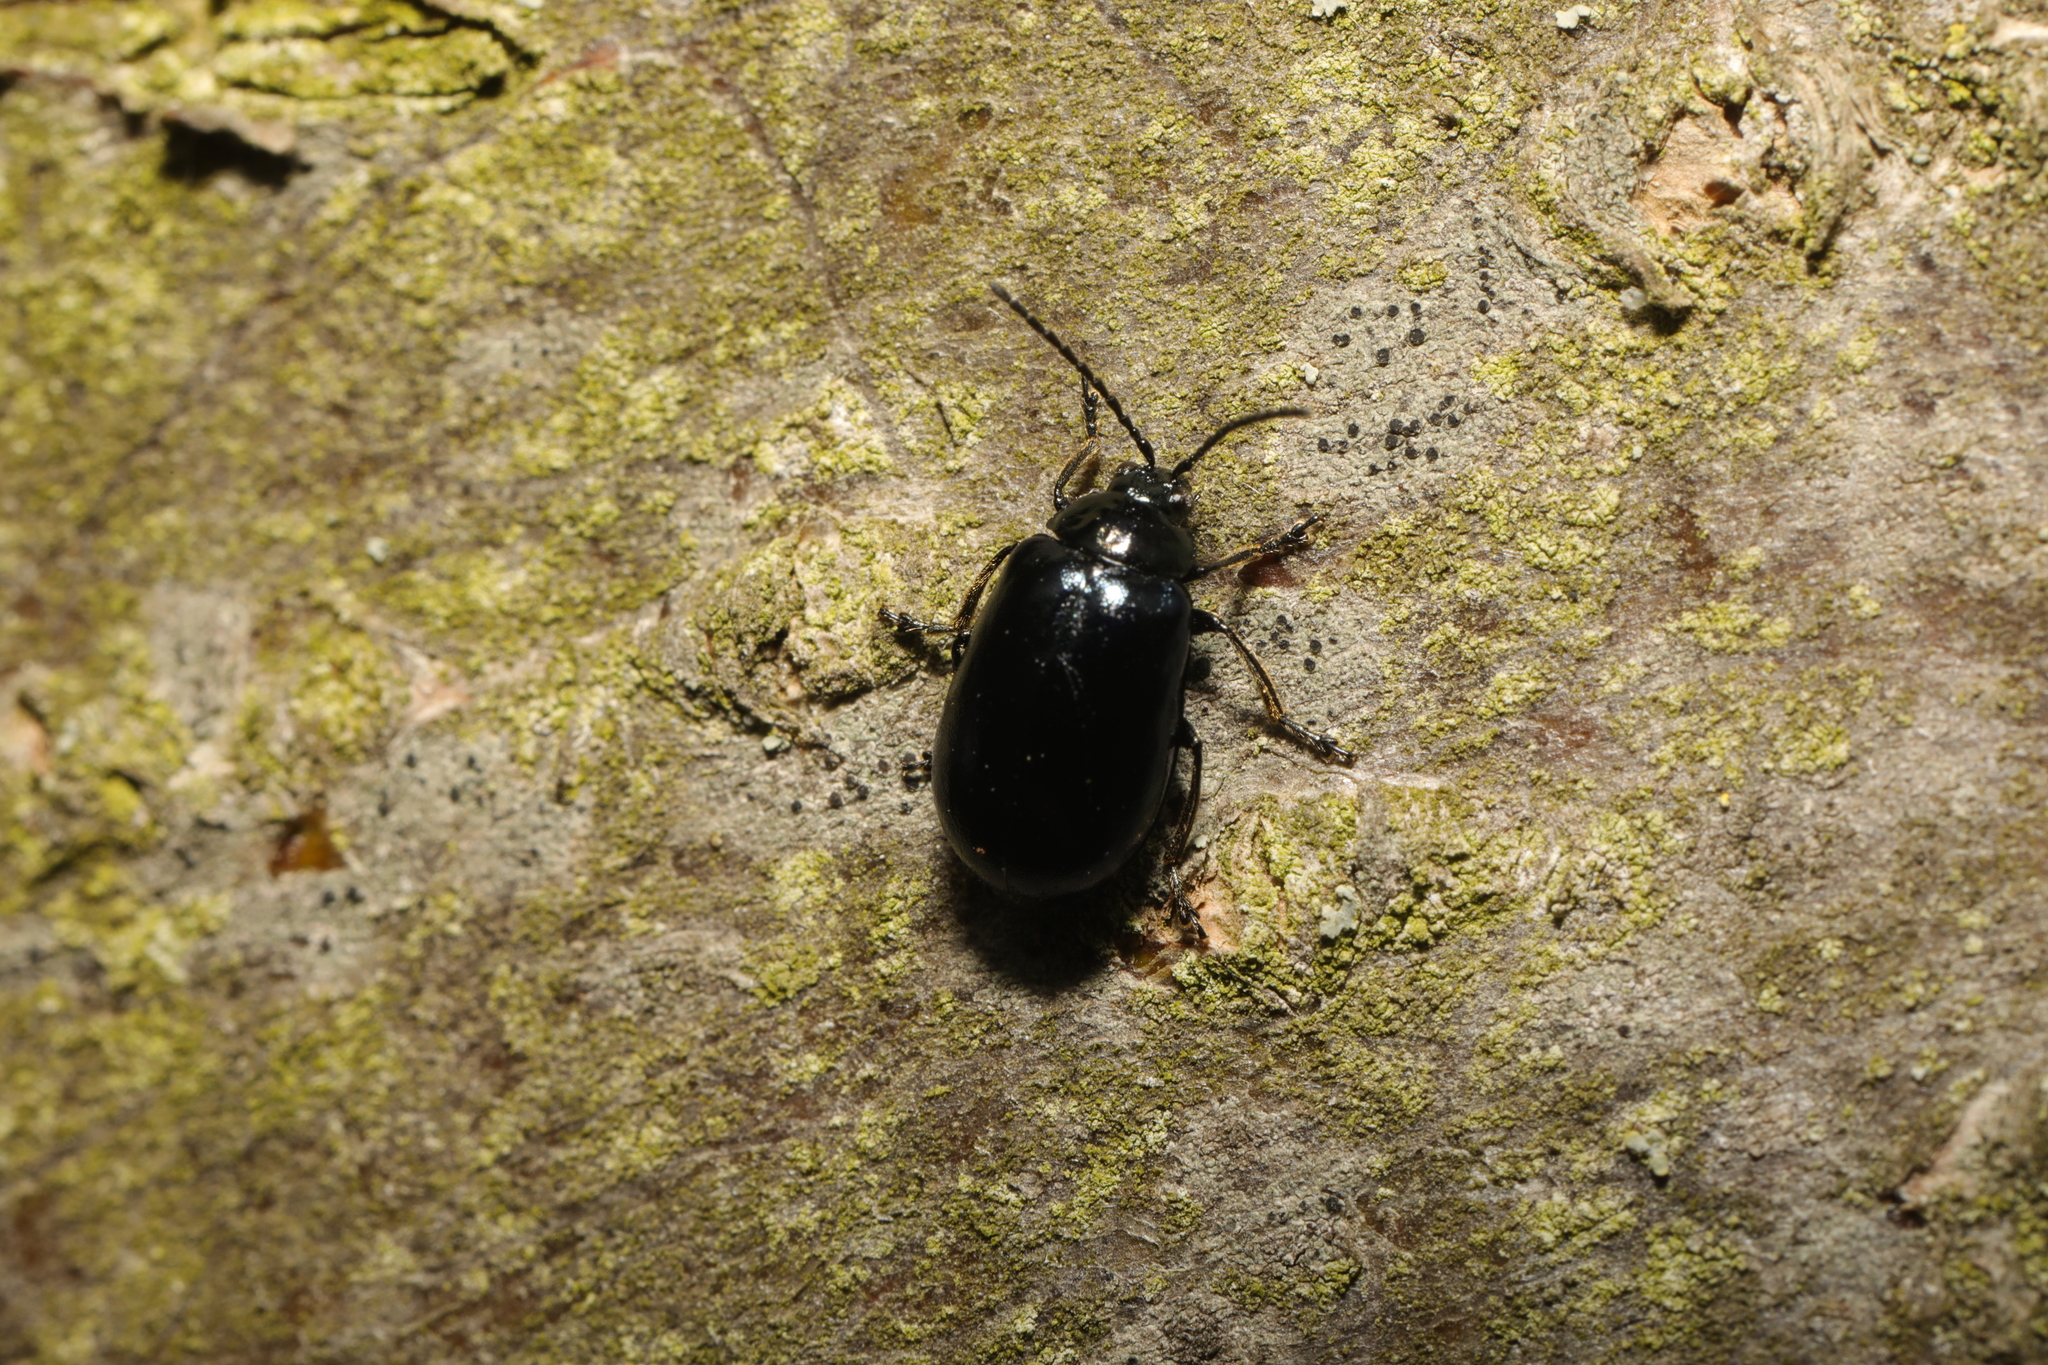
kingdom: Animalia
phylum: Arthropoda
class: Insecta
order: Coleoptera
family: Chrysomelidae
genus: Agelastica
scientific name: Agelastica alni
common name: Alder leaf beetle
